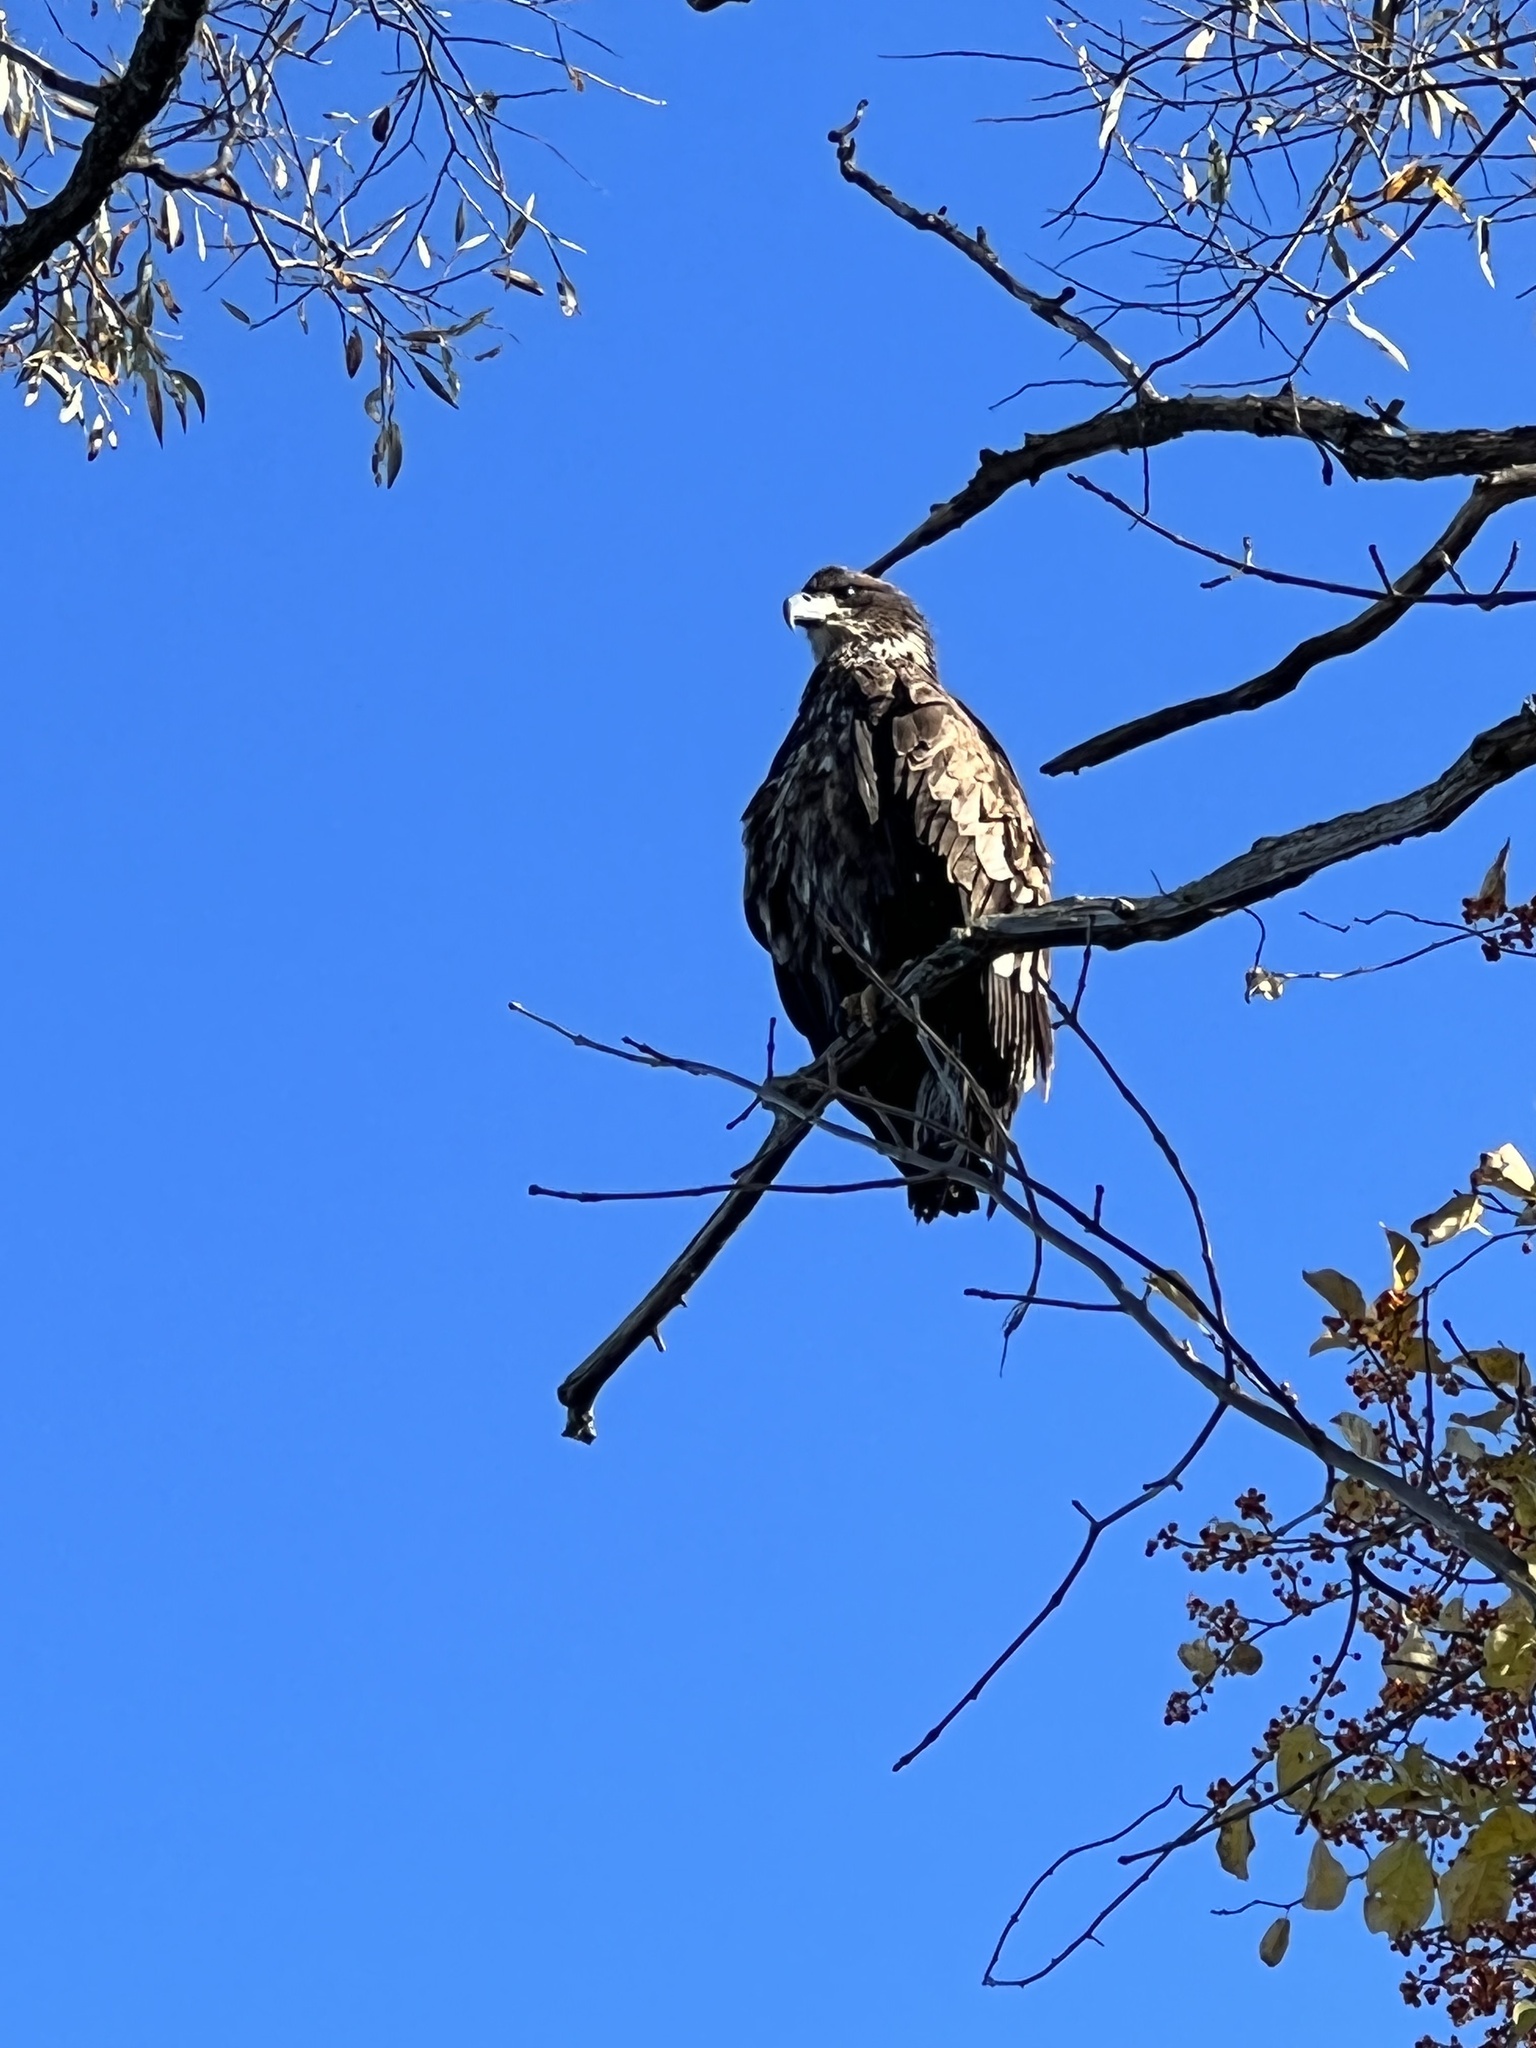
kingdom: Animalia
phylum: Chordata
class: Aves
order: Accipitriformes
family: Accipitridae
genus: Haliaeetus
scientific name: Haliaeetus leucocephalus
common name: Bald eagle
